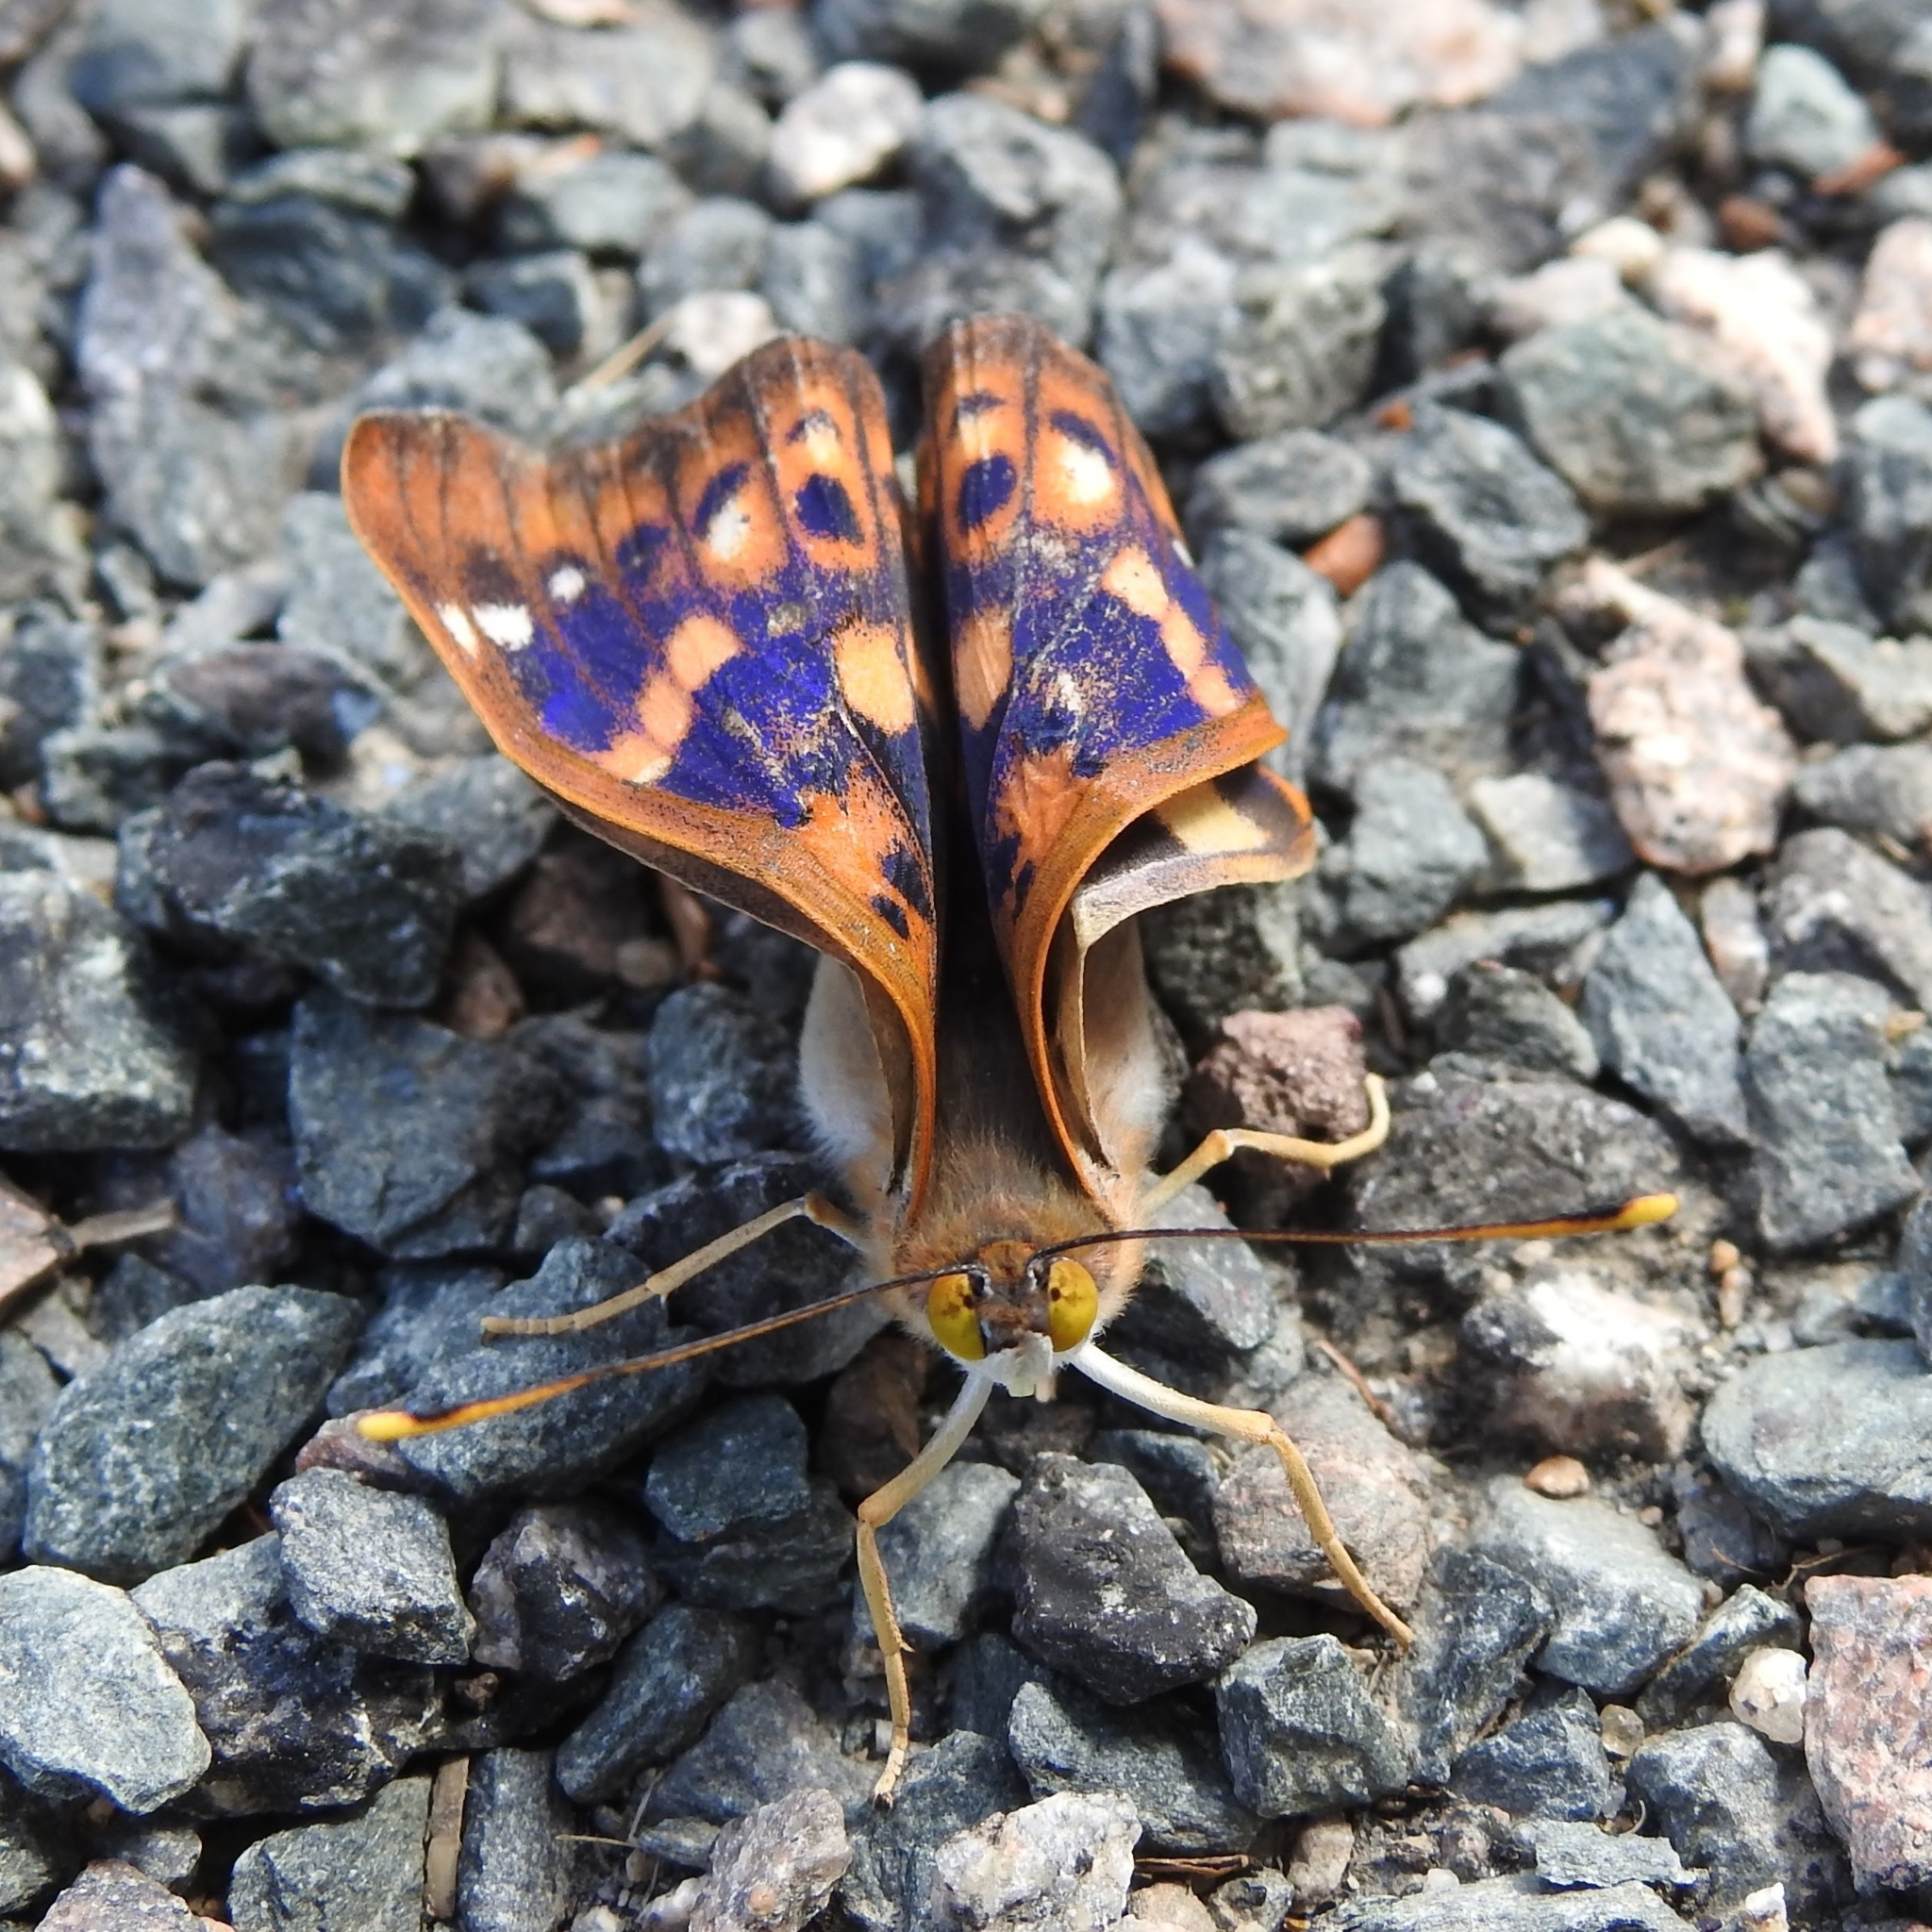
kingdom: Animalia
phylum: Arthropoda
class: Insecta
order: Lepidoptera
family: Nymphalidae
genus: Apatura
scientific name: Apatura ilia
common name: Lesser purple emperor
